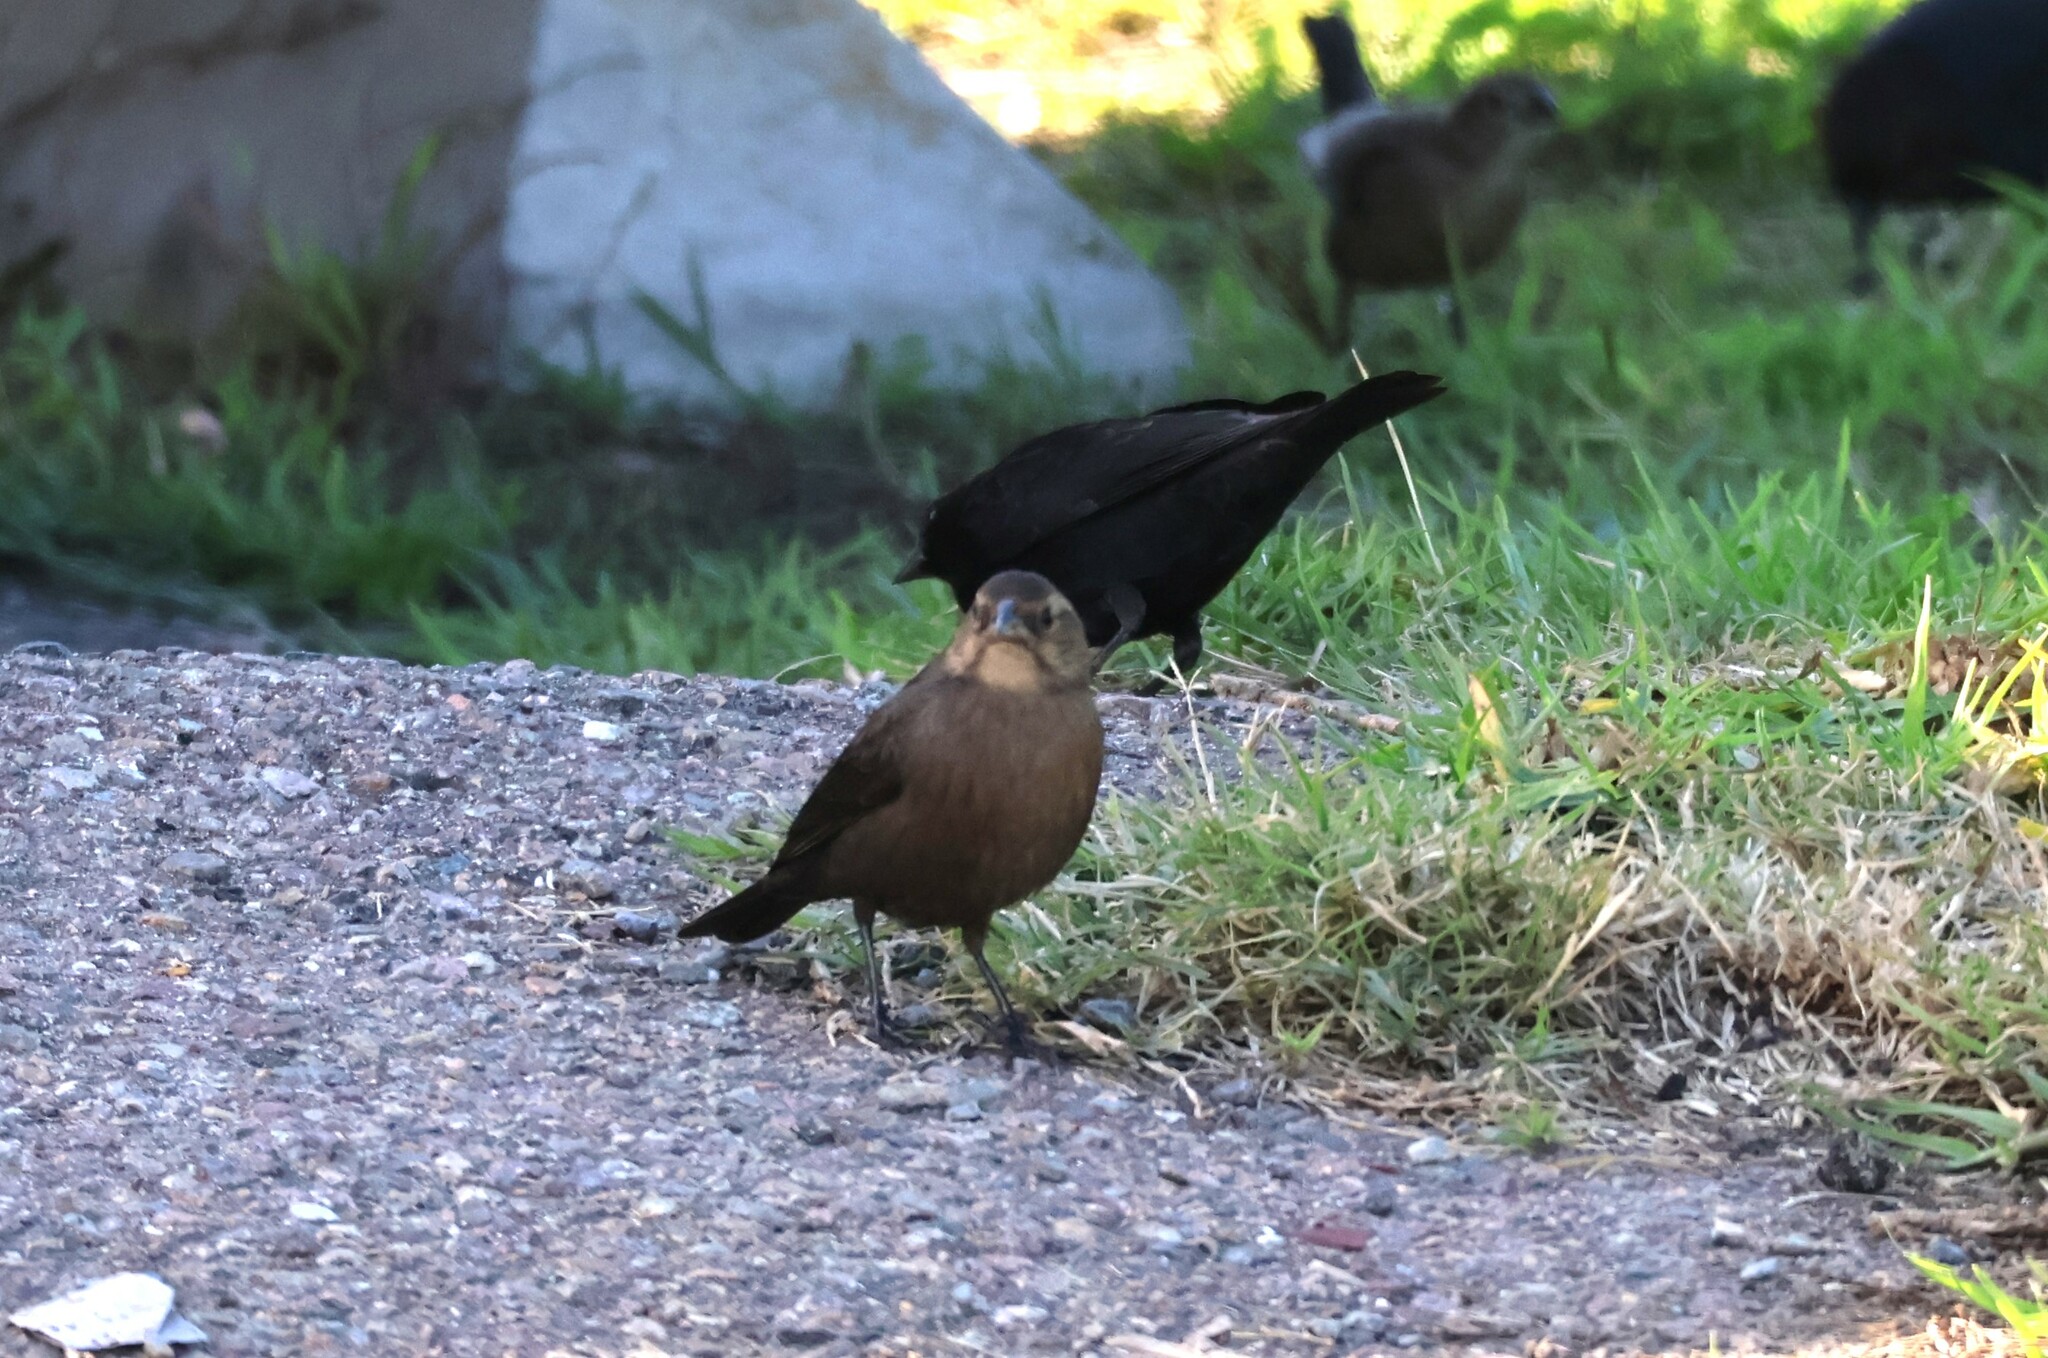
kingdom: Animalia
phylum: Chordata
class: Aves
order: Passeriformes
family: Icteridae
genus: Molothrus
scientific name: Molothrus ater
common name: Brown-headed cowbird
